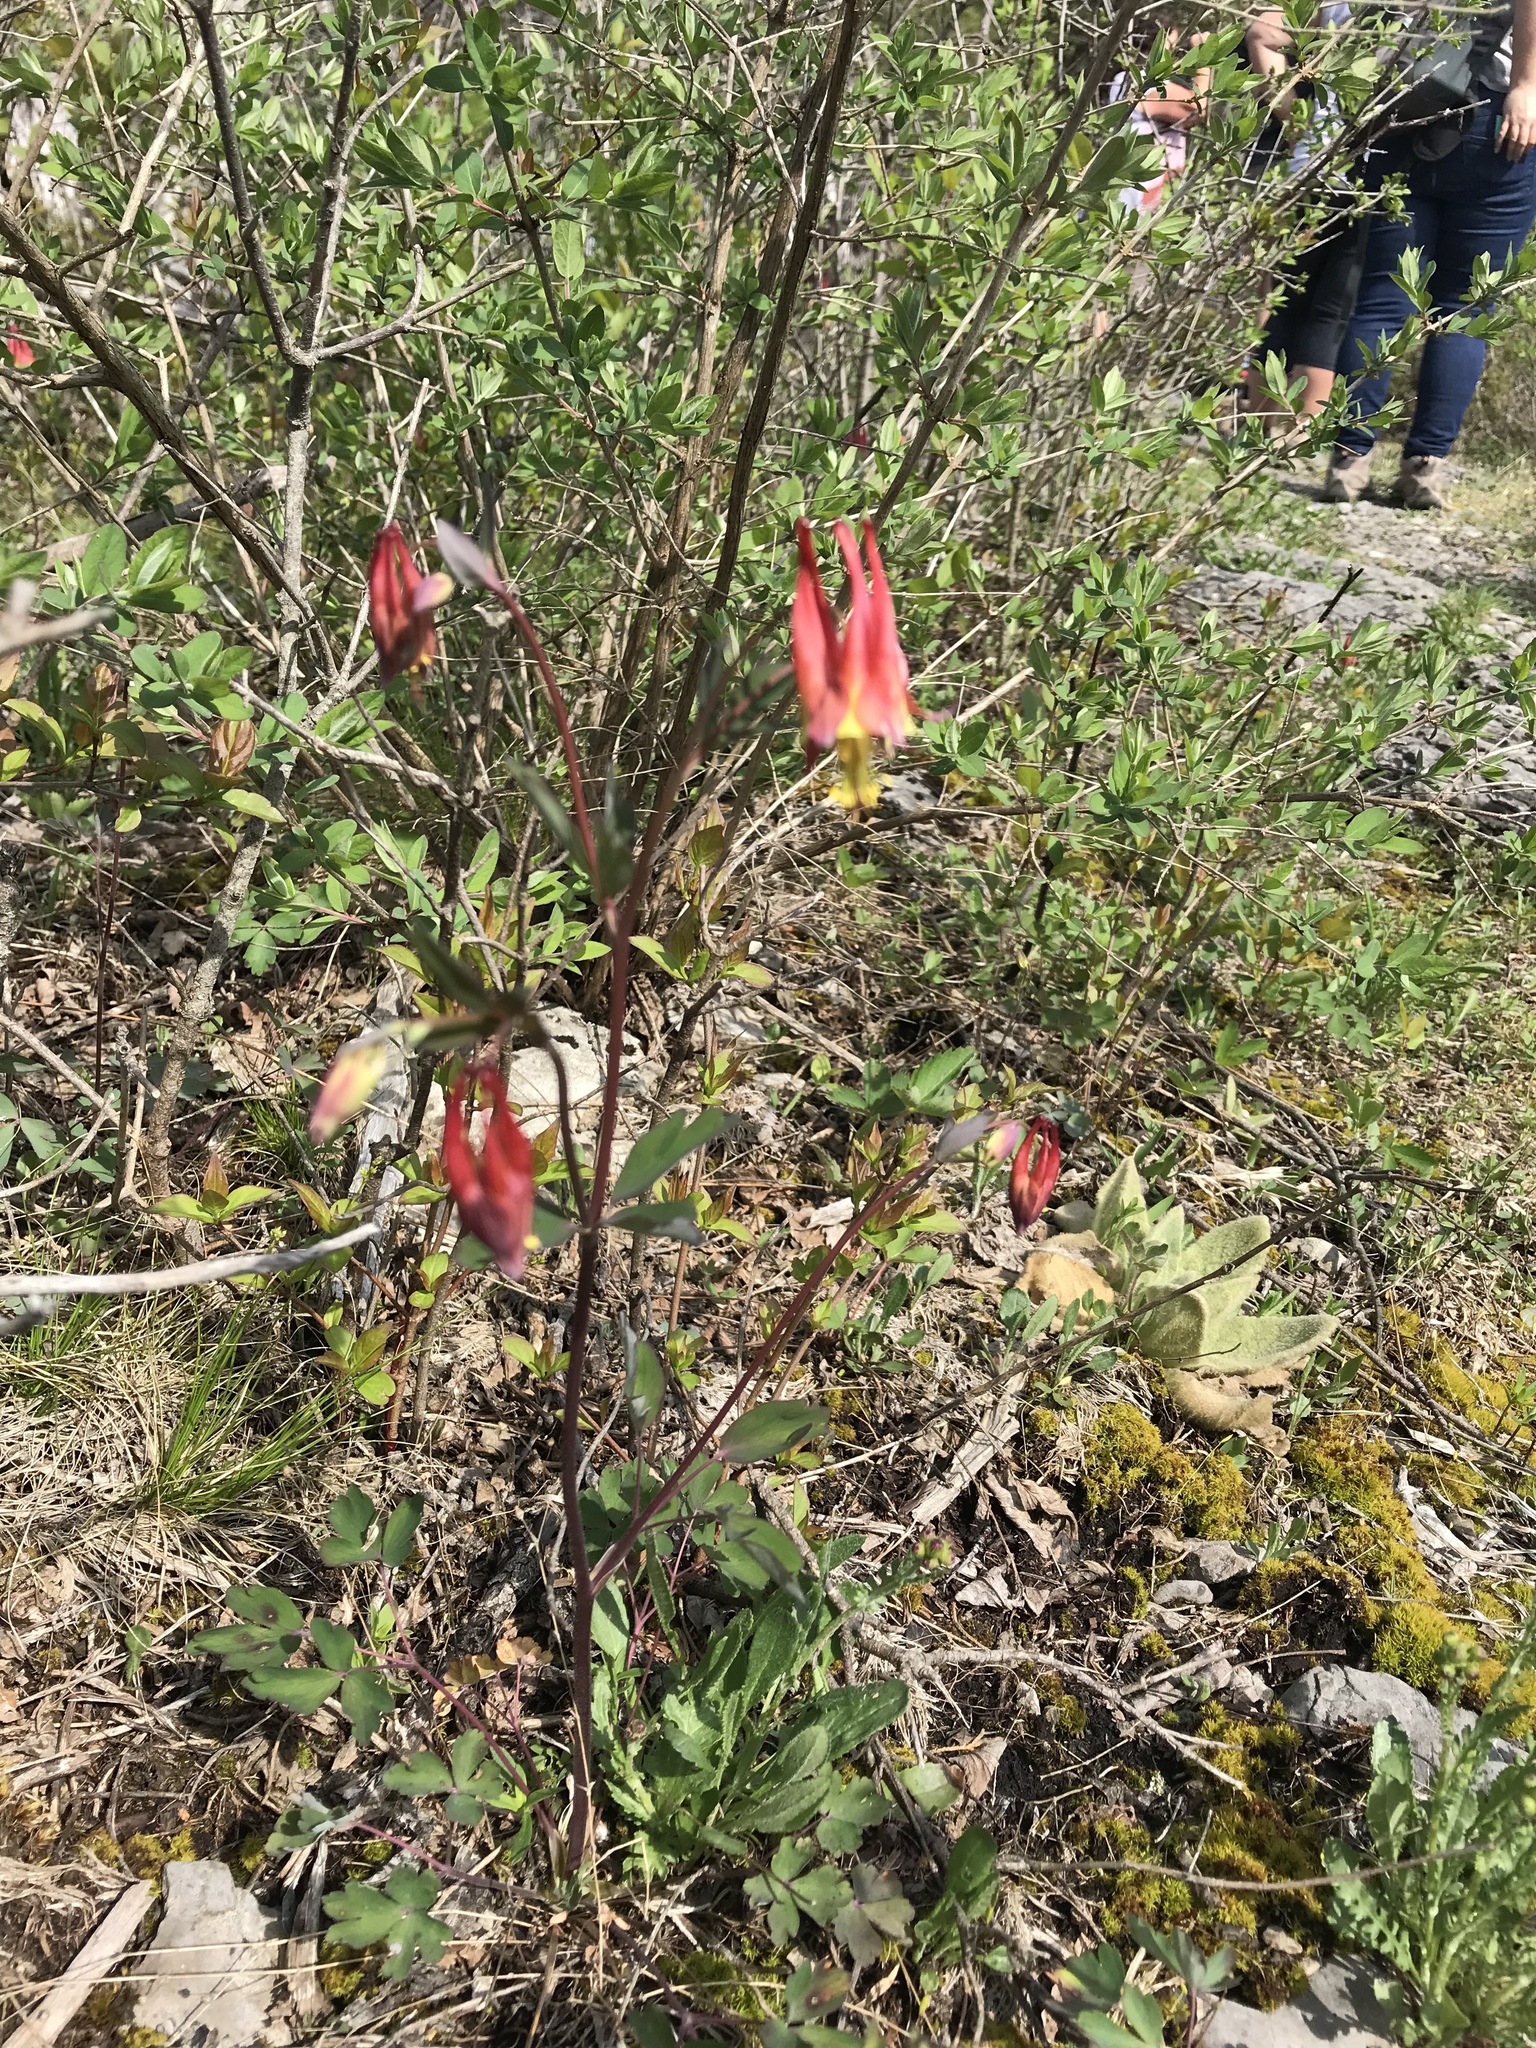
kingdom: Plantae
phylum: Tracheophyta
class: Magnoliopsida
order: Ranunculales
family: Ranunculaceae
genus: Aquilegia
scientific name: Aquilegia canadensis
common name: American columbine
